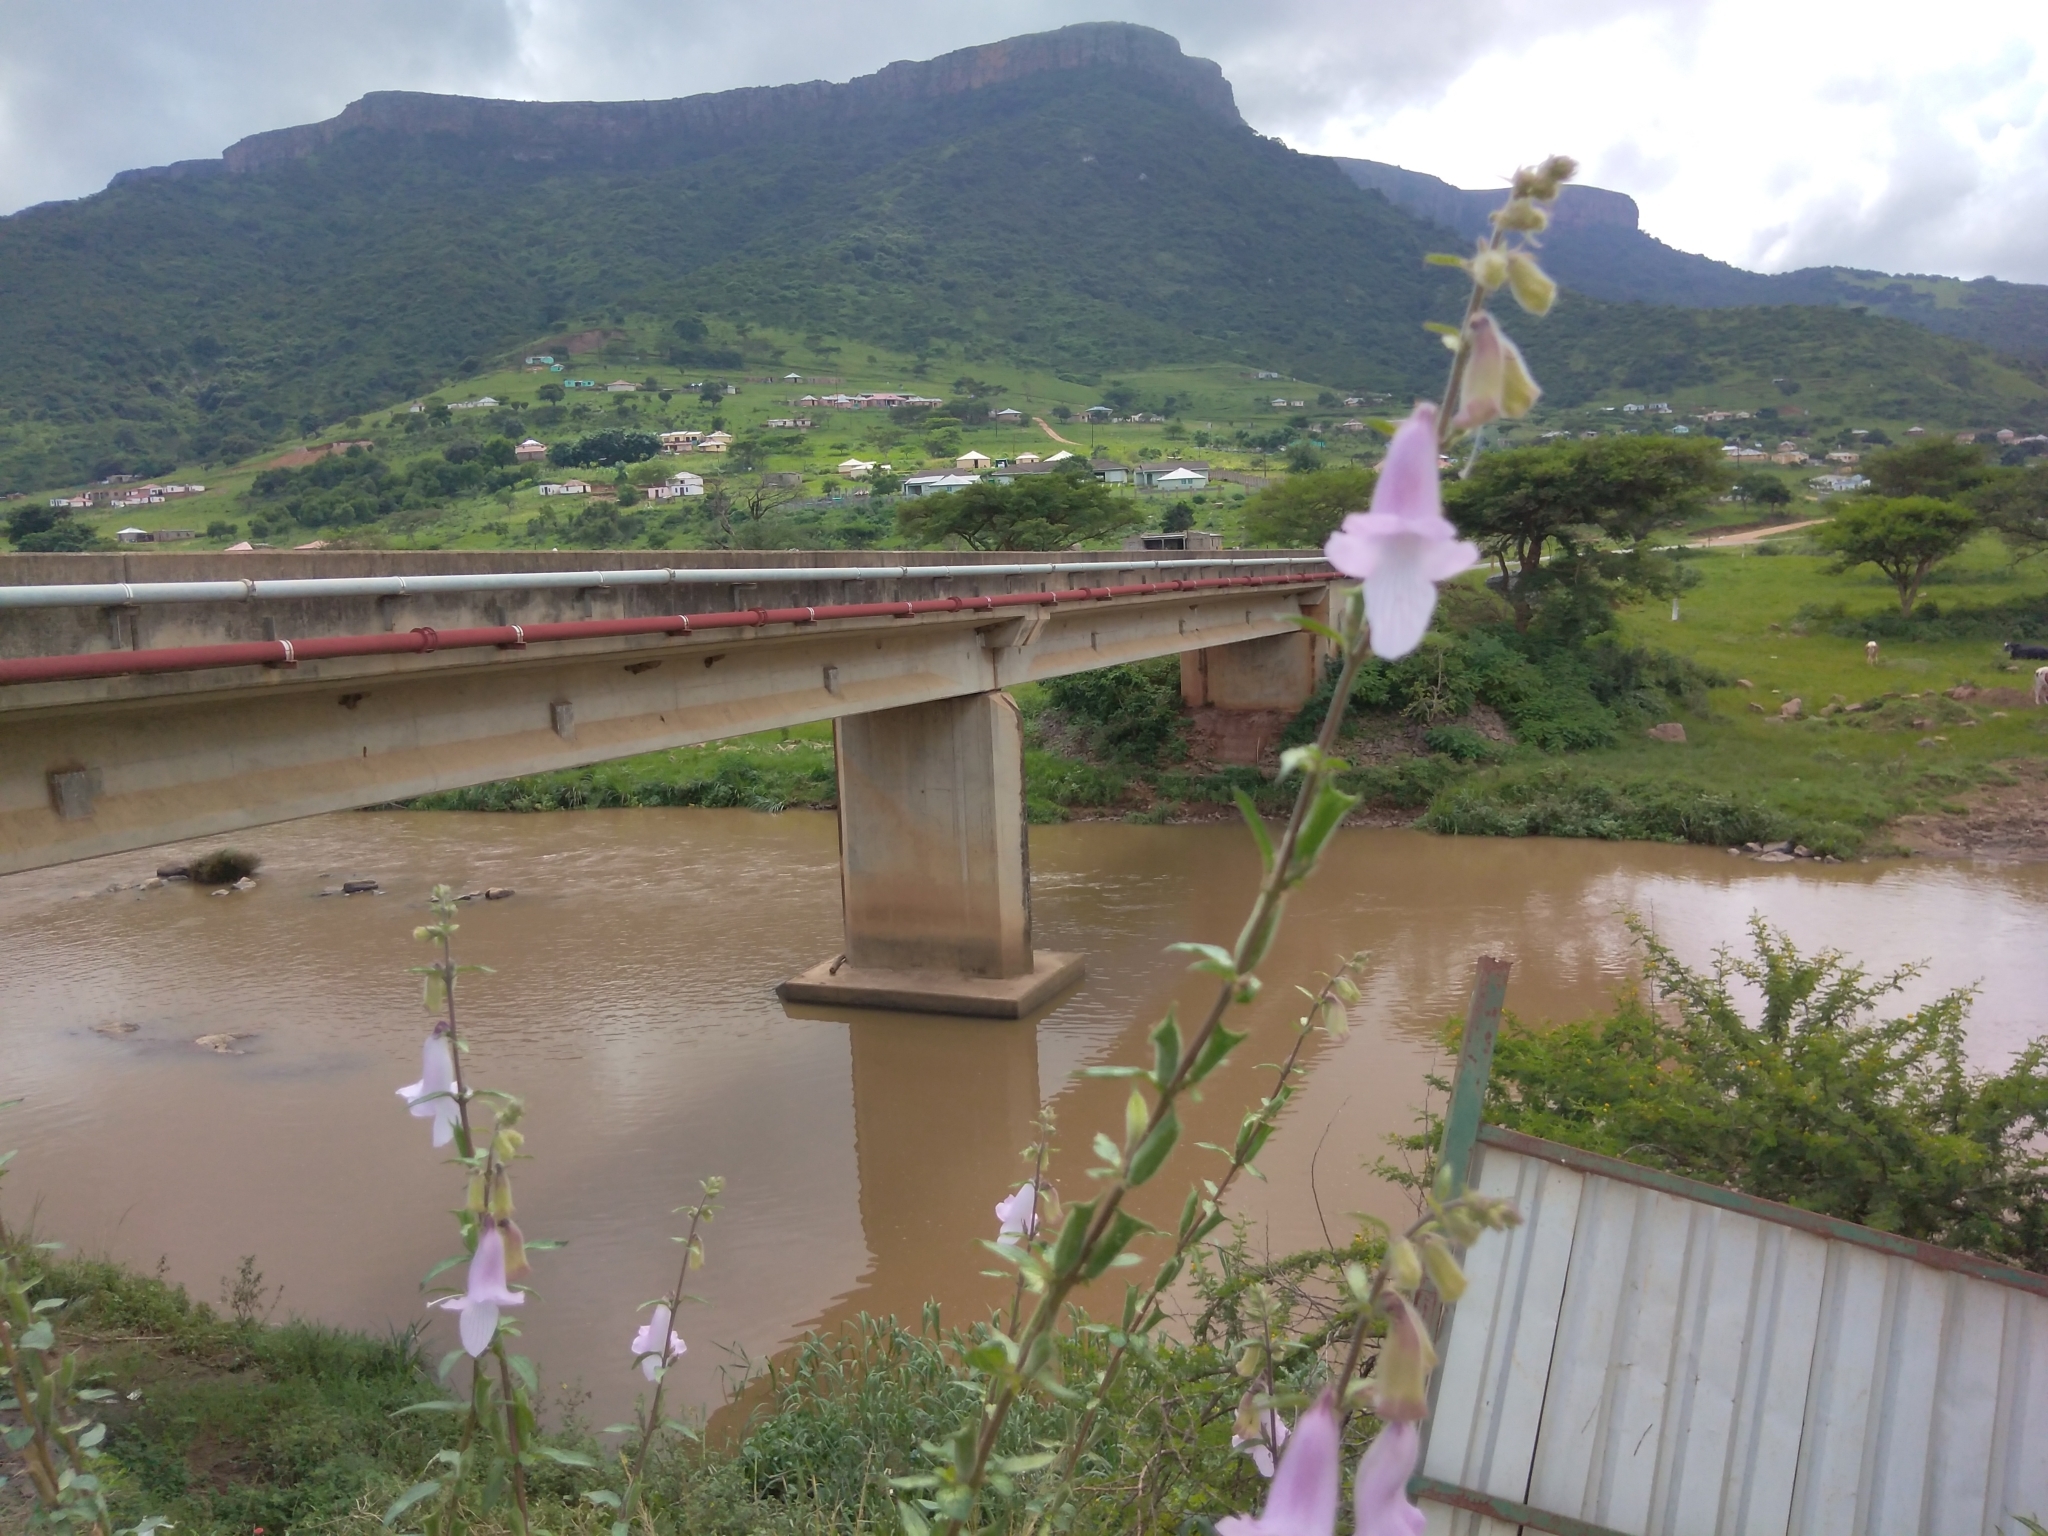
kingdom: Plantae
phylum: Tracheophyta
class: Magnoliopsida
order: Lamiales
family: Pedaliaceae
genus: Sesamum
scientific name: Sesamum trilobum
